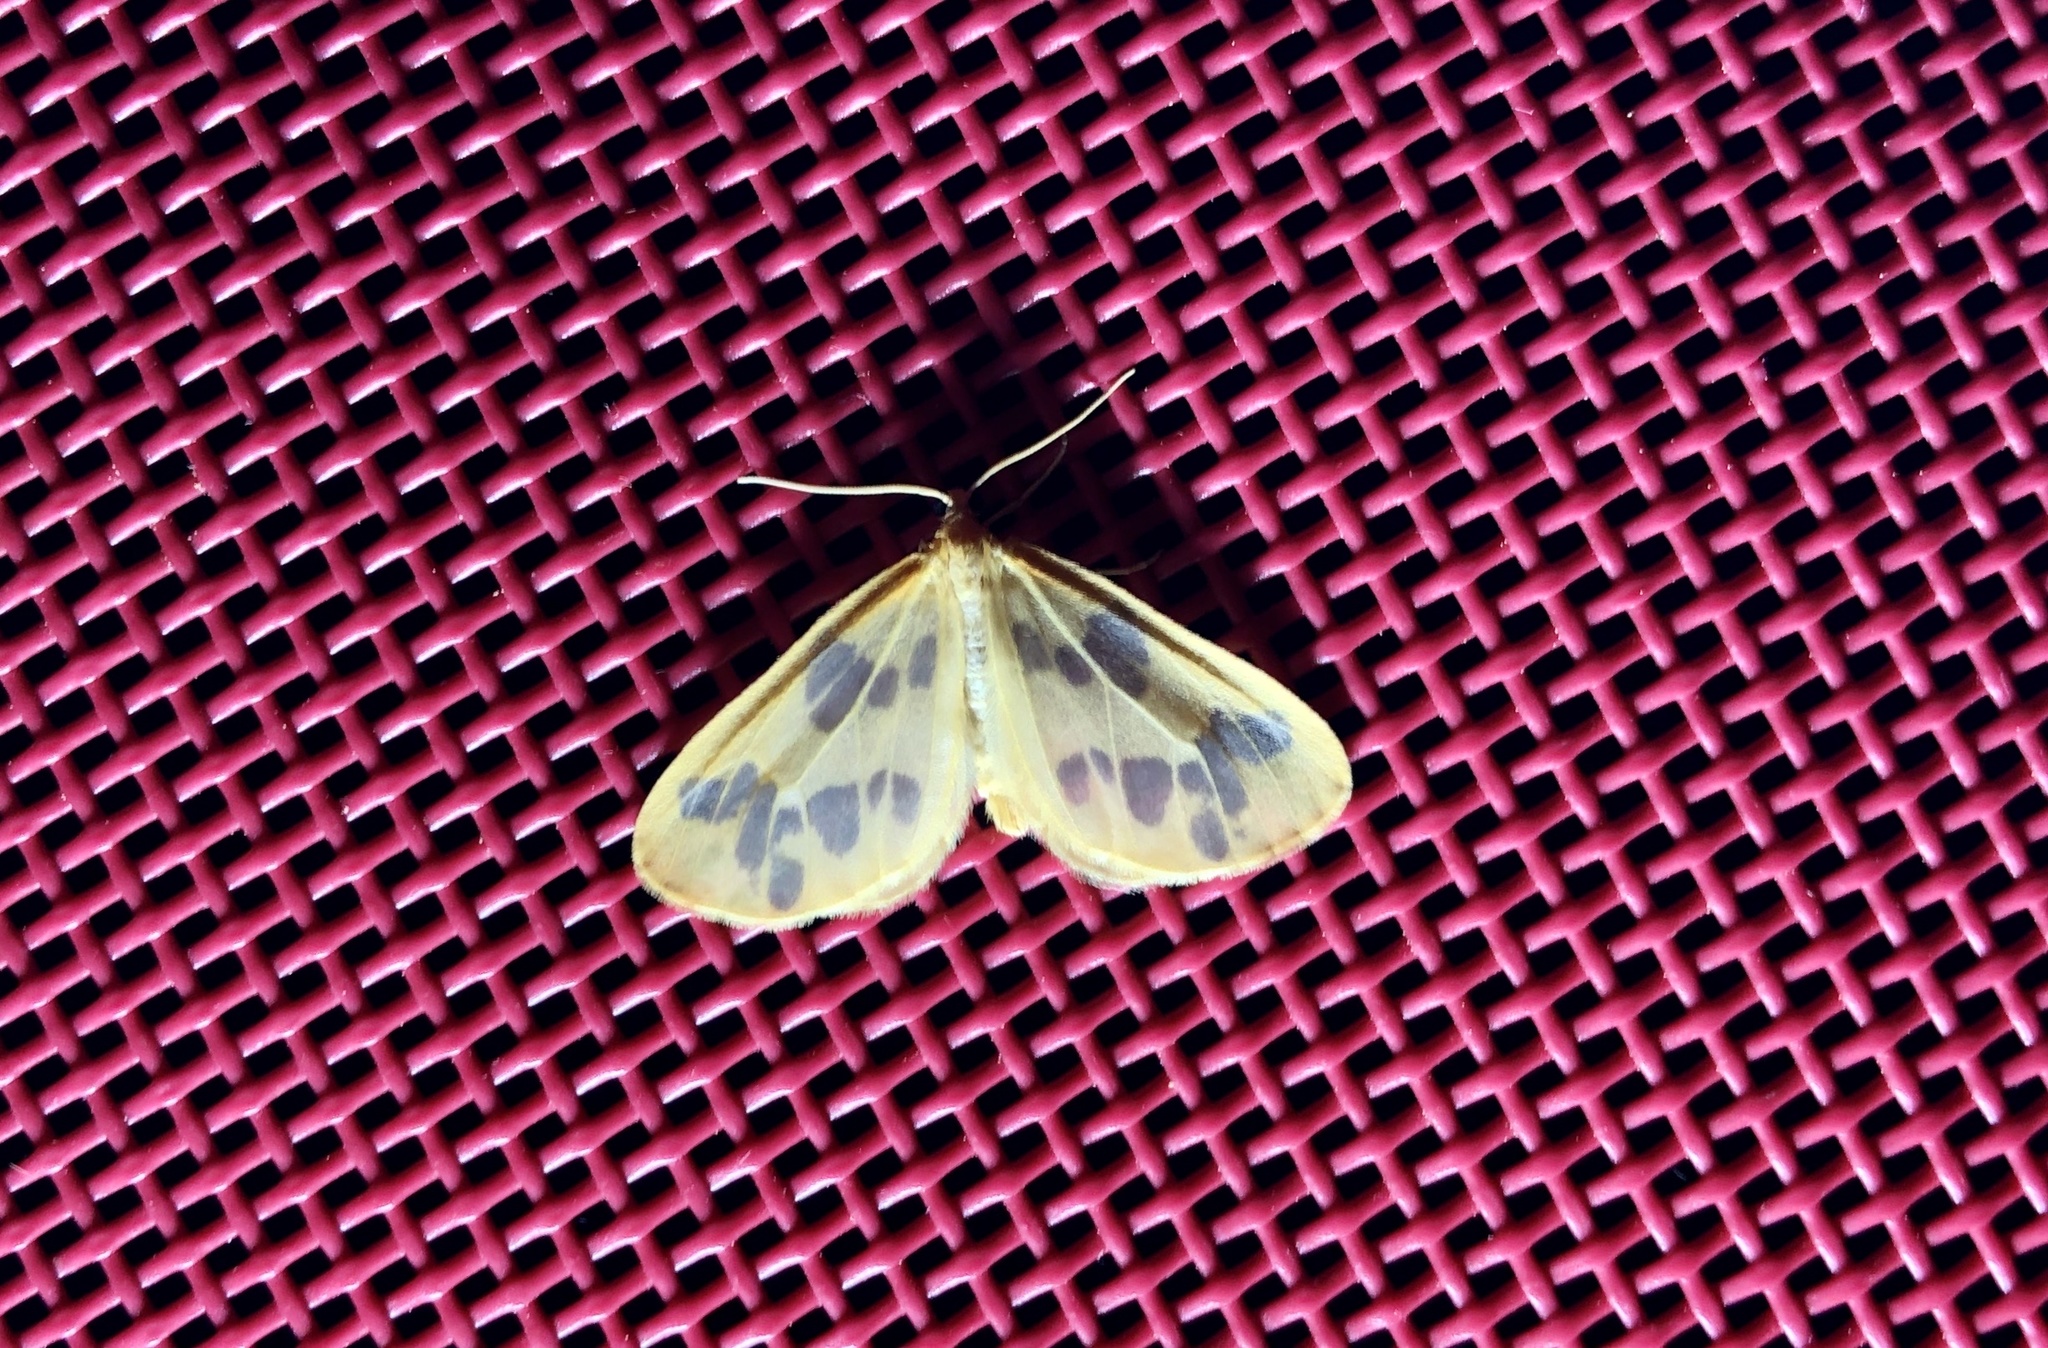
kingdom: Animalia
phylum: Arthropoda
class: Insecta
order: Lepidoptera
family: Geometridae
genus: Eubaphe
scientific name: Eubaphe mendica
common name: Beggar
